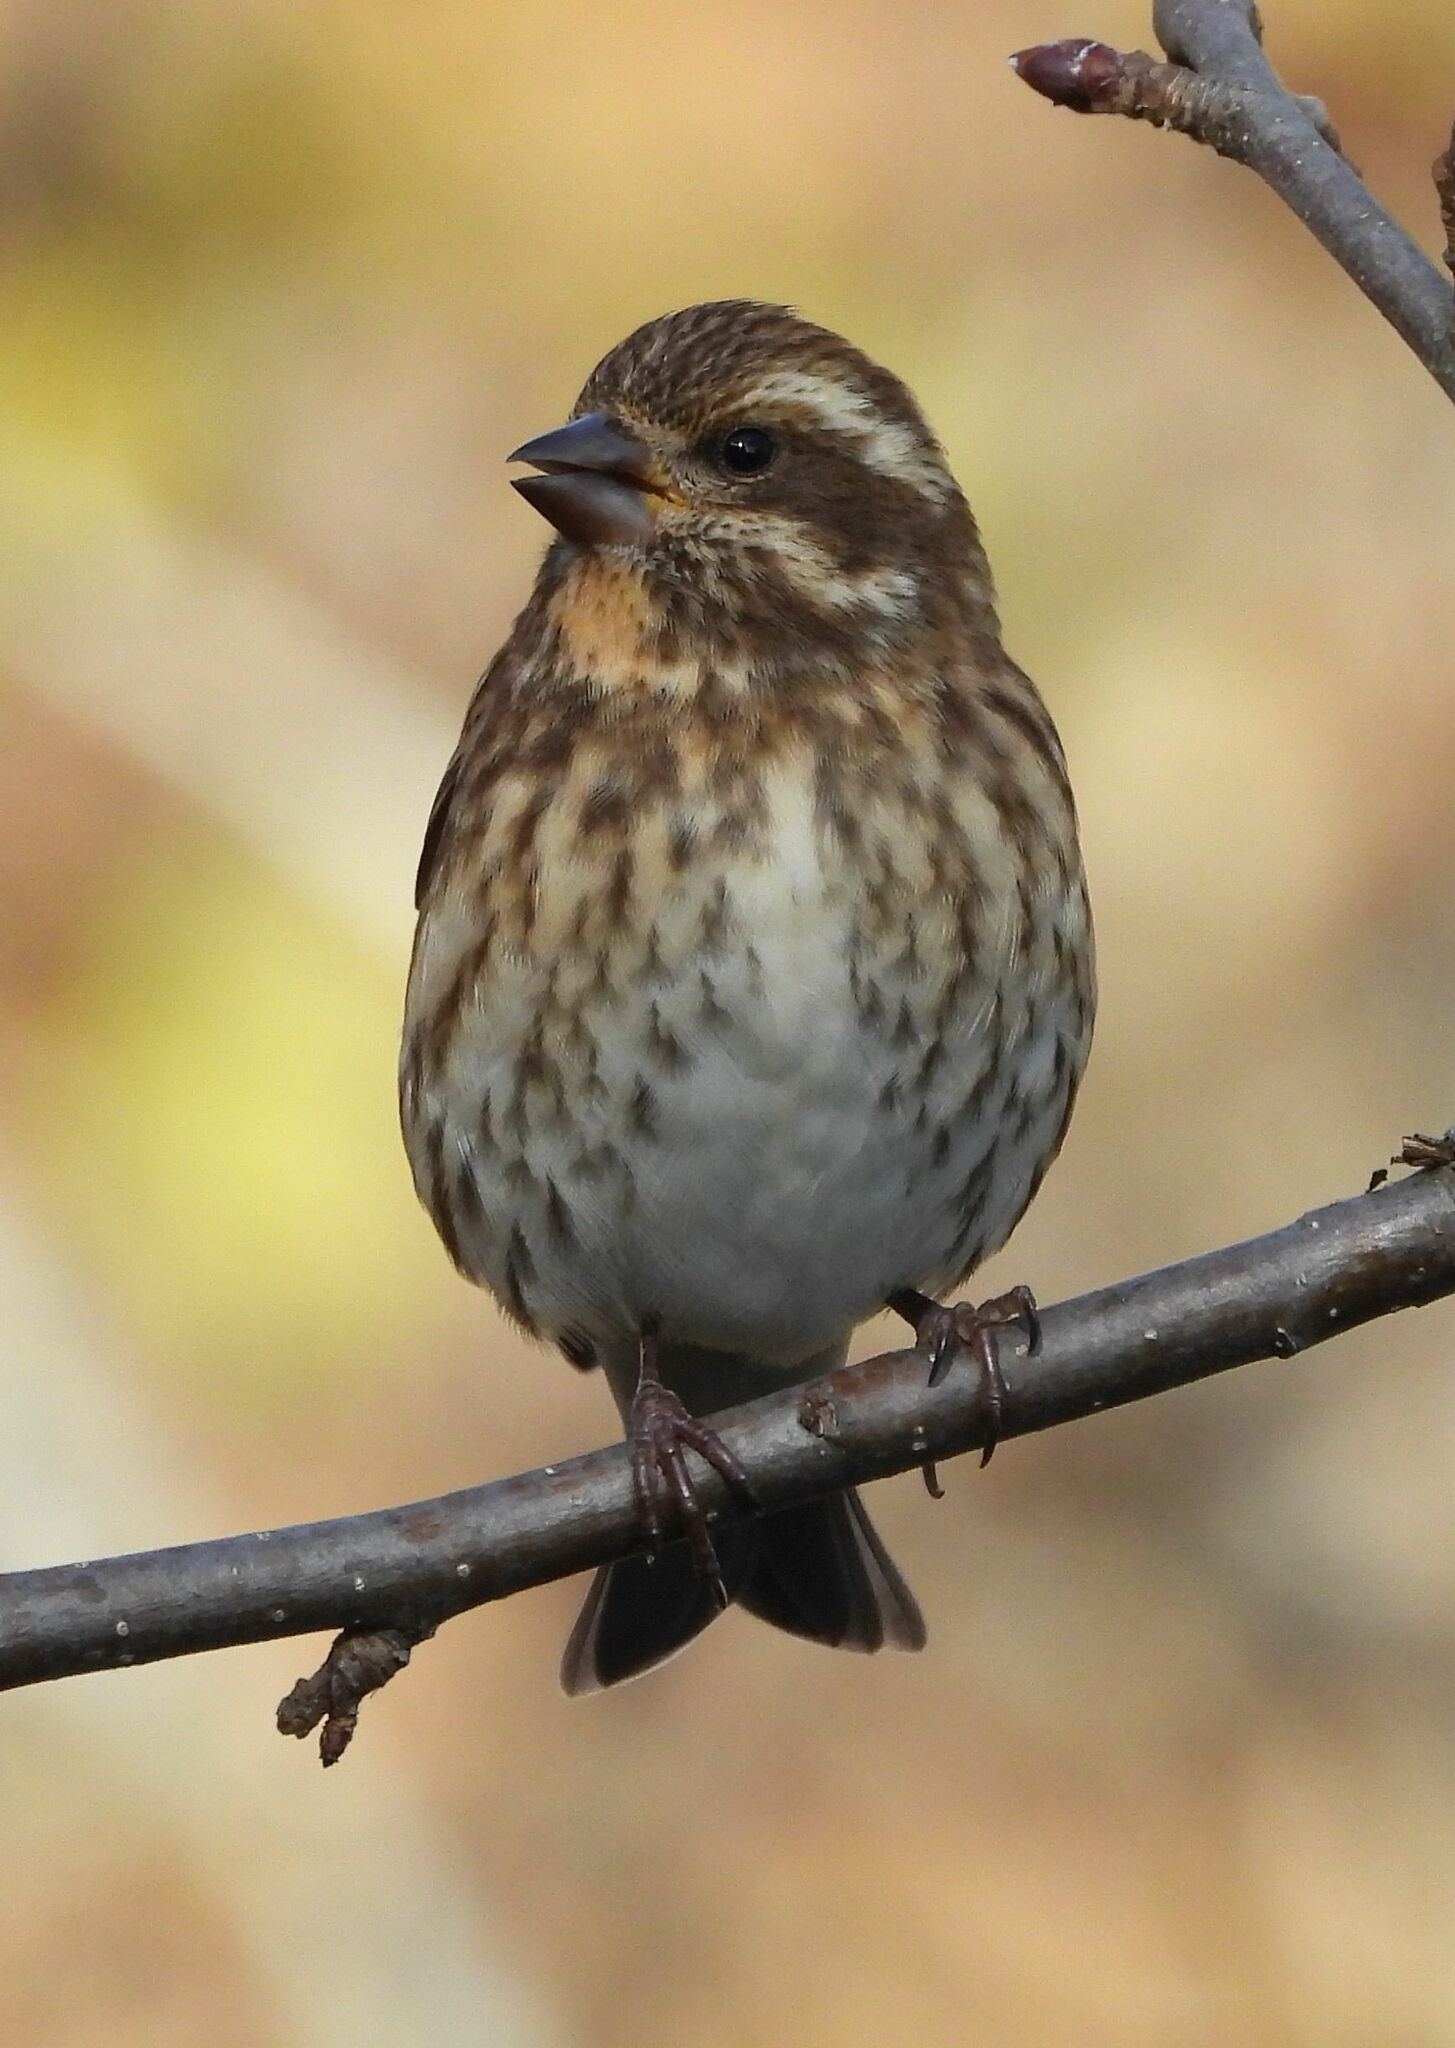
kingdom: Animalia
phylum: Chordata
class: Aves
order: Passeriformes
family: Fringillidae
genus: Haemorhous
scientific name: Haemorhous purpureus
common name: Purple finch
